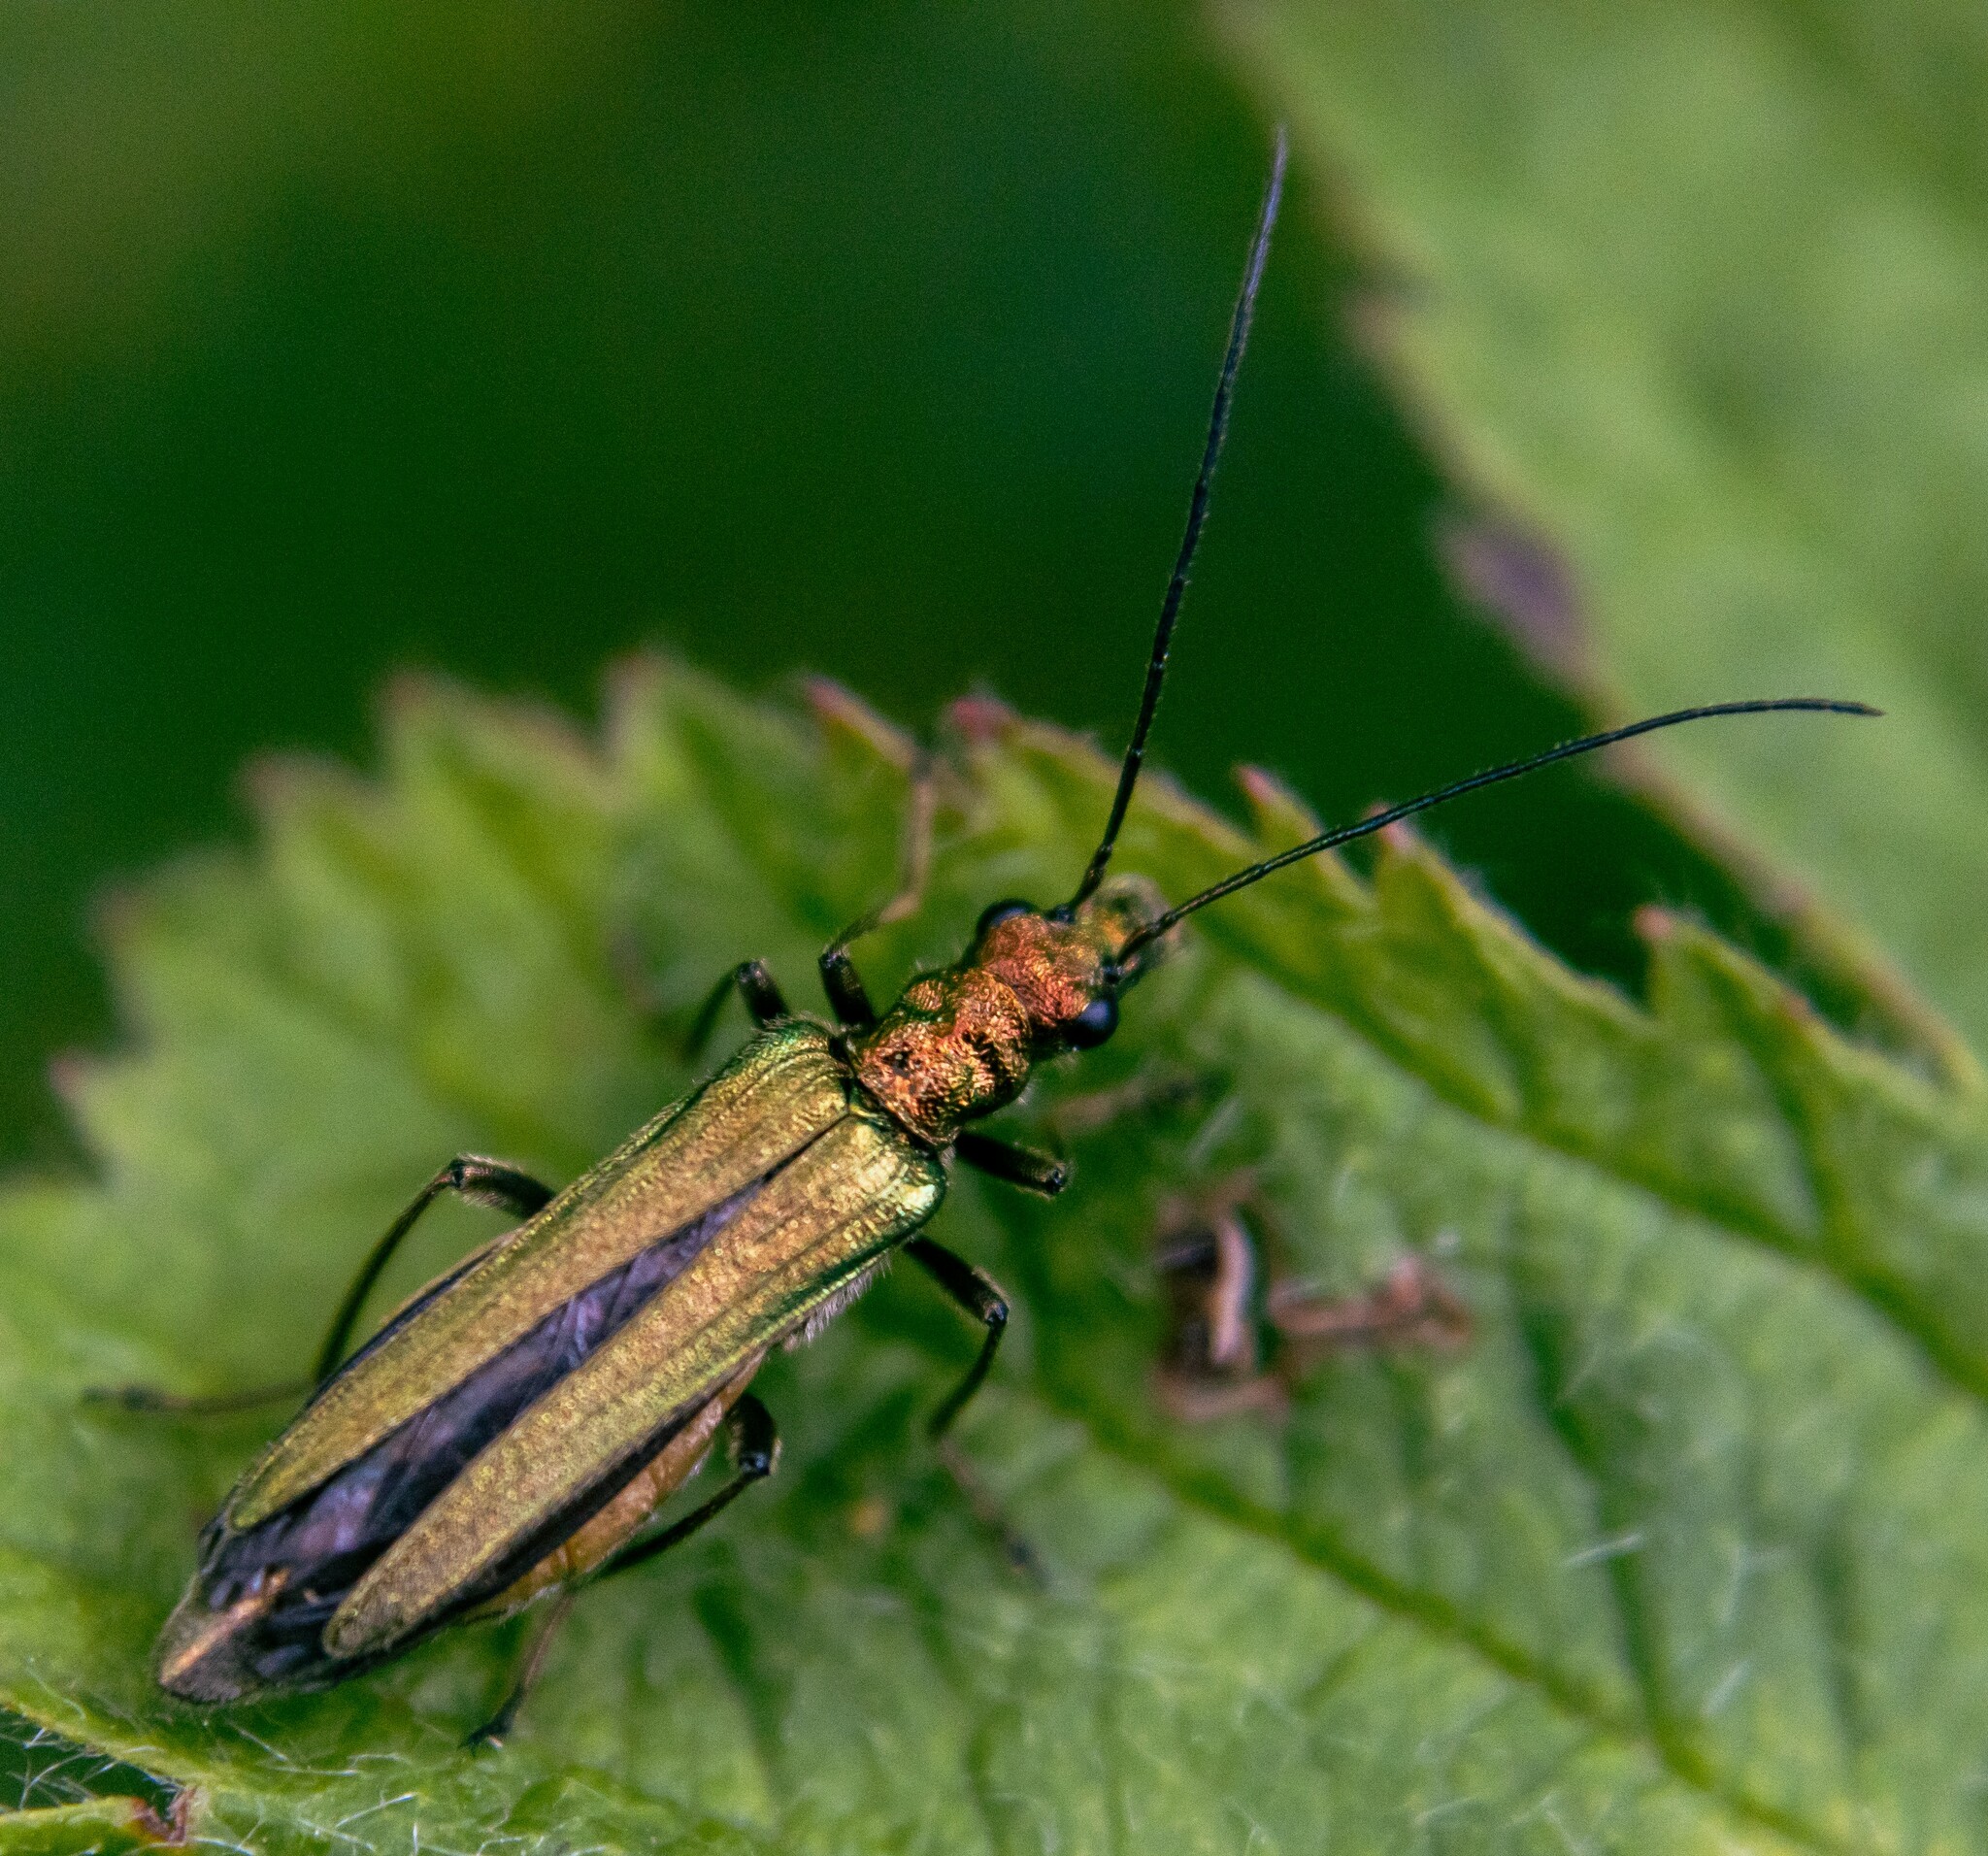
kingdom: Animalia
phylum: Arthropoda
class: Insecta
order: Coleoptera
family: Oedemeridae
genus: Oedemera
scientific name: Oedemera nobilis
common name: Swollen-thighed beetle
